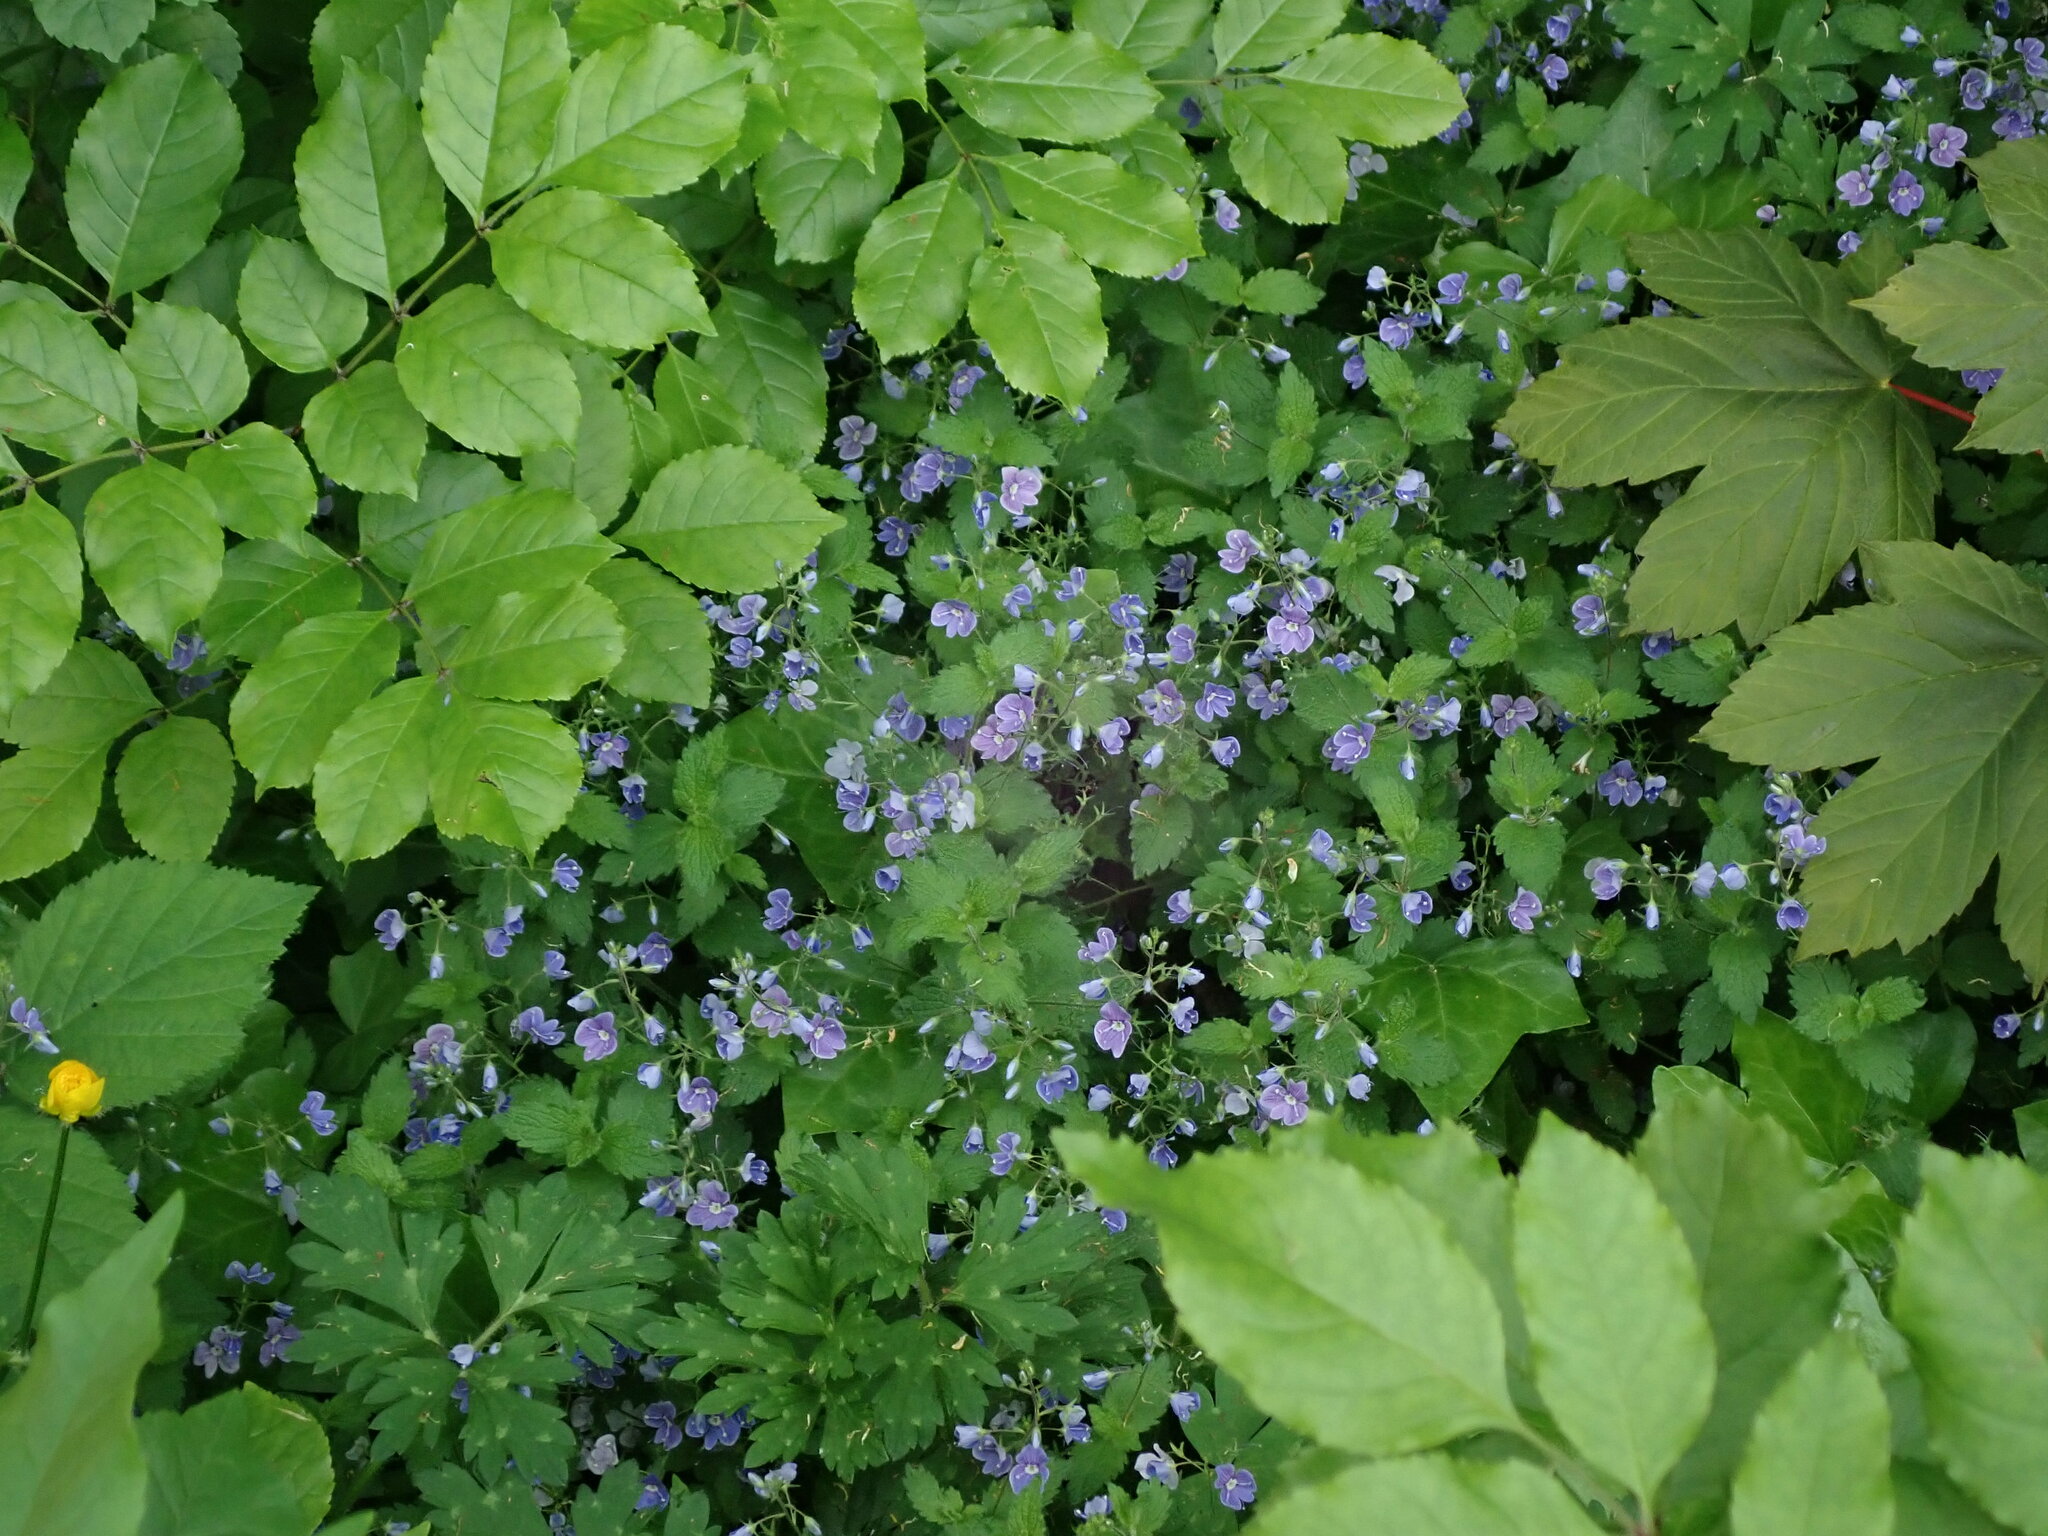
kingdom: Plantae
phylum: Tracheophyta
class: Magnoliopsida
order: Lamiales
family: Plantaginaceae
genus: Veronica
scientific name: Veronica chamaedrys
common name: Germander speedwell
